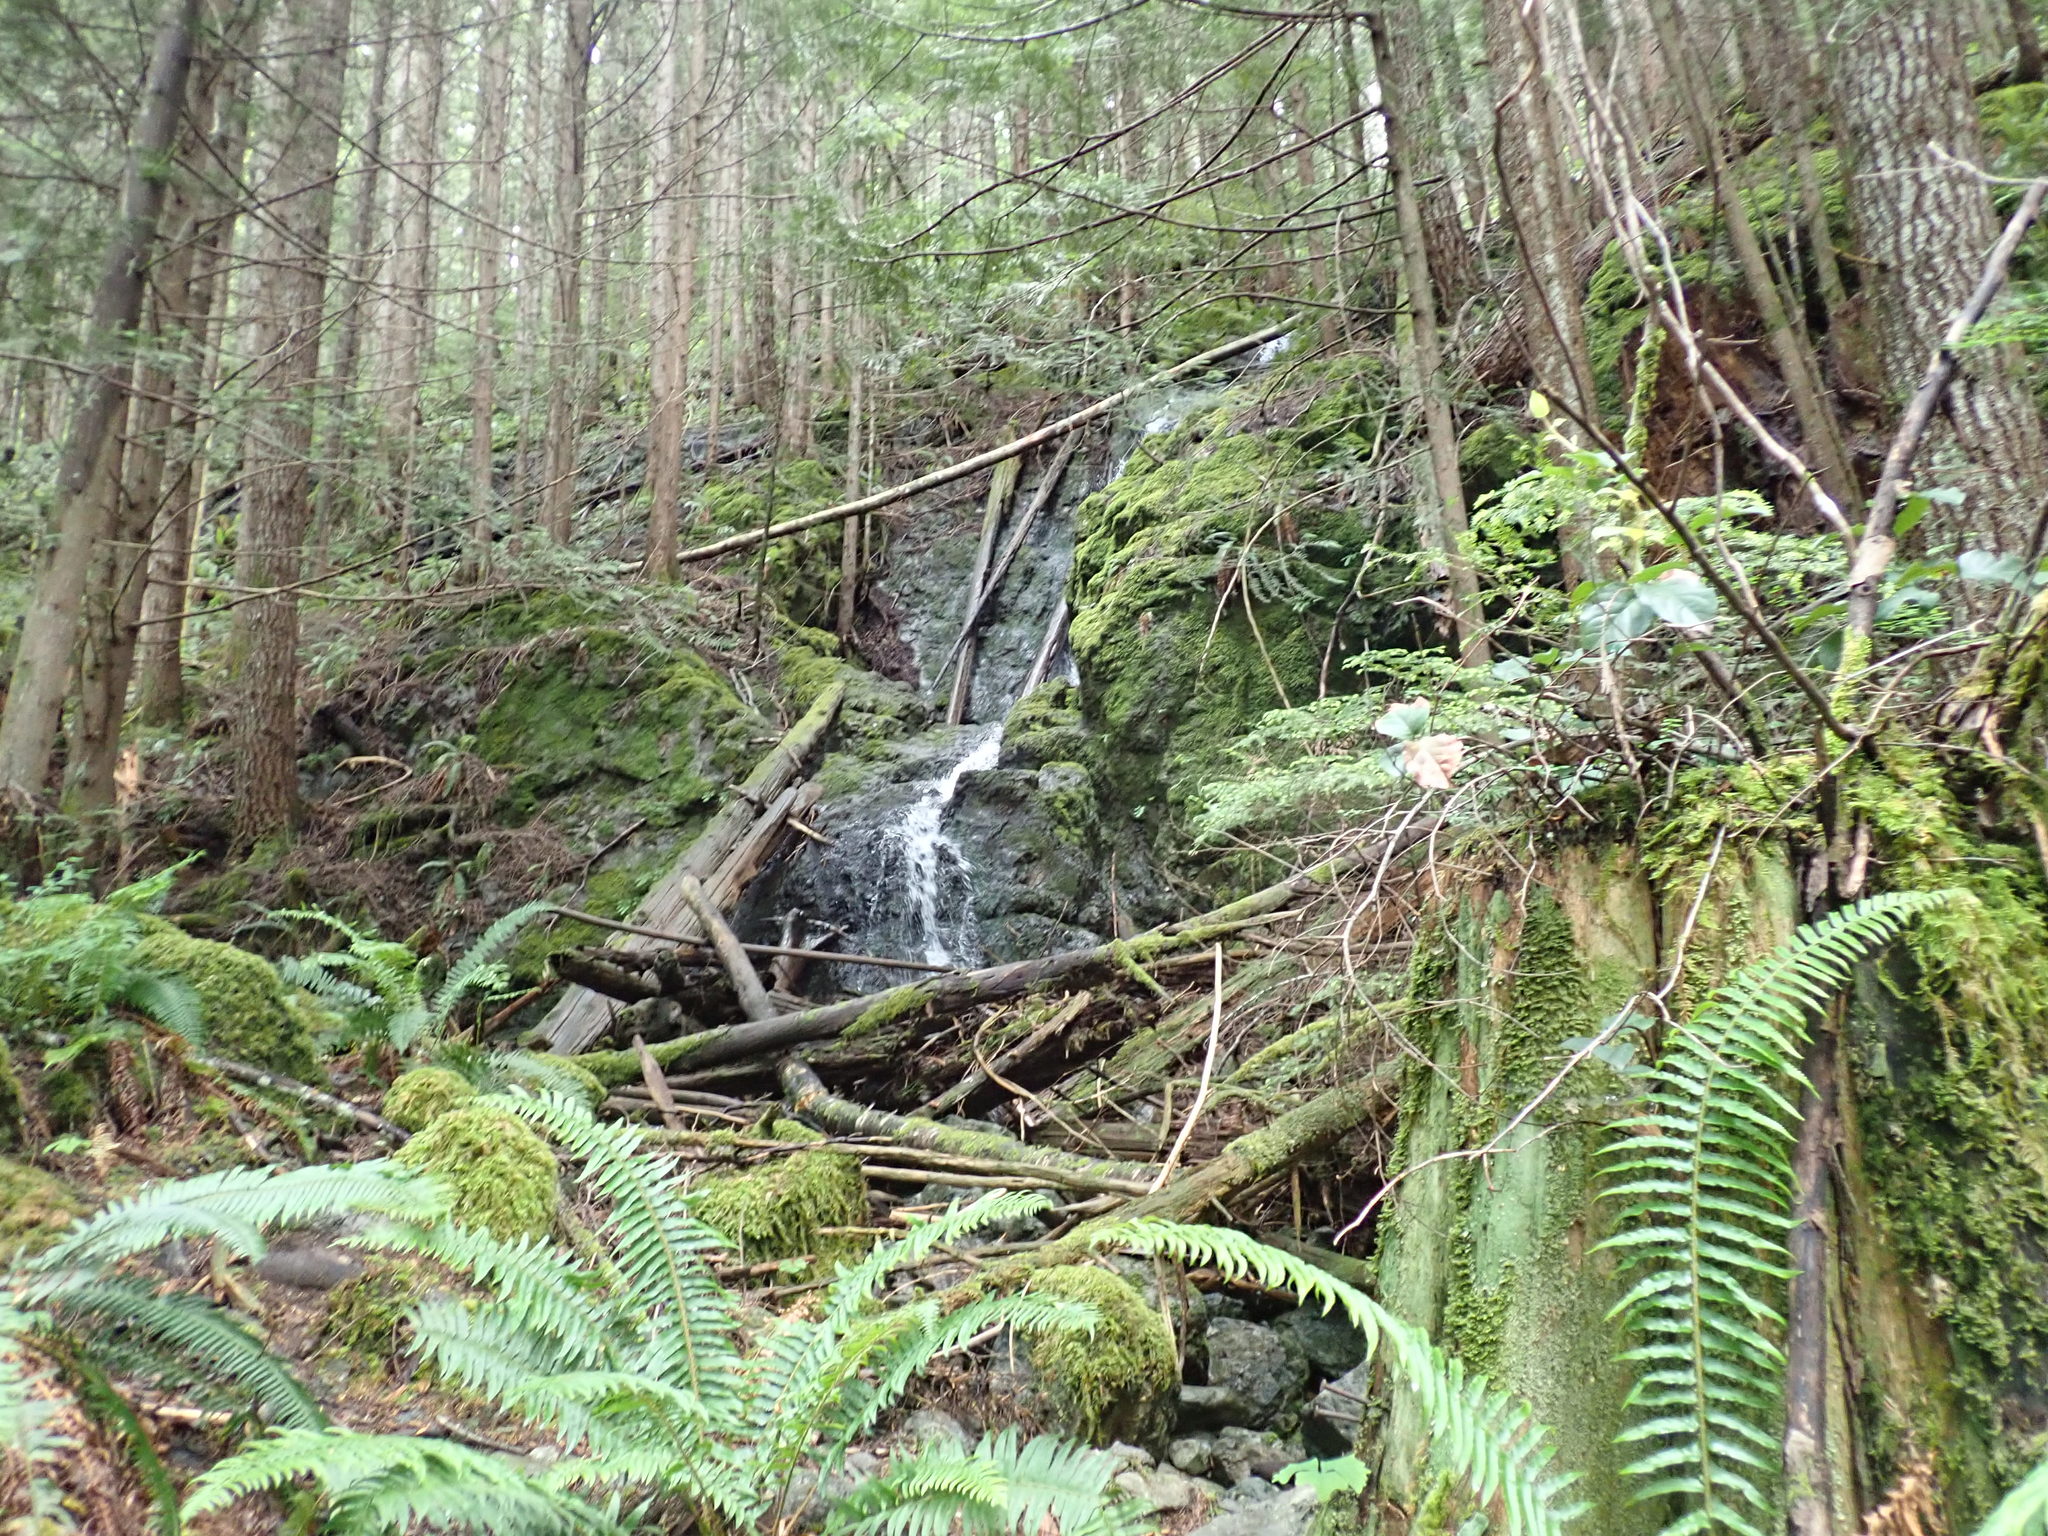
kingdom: Plantae
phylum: Tracheophyta
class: Polypodiopsida
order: Polypodiales
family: Pteridaceae
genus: Adiantum
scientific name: Adiantum aleuticum
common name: Aleutian maidenhair fern
